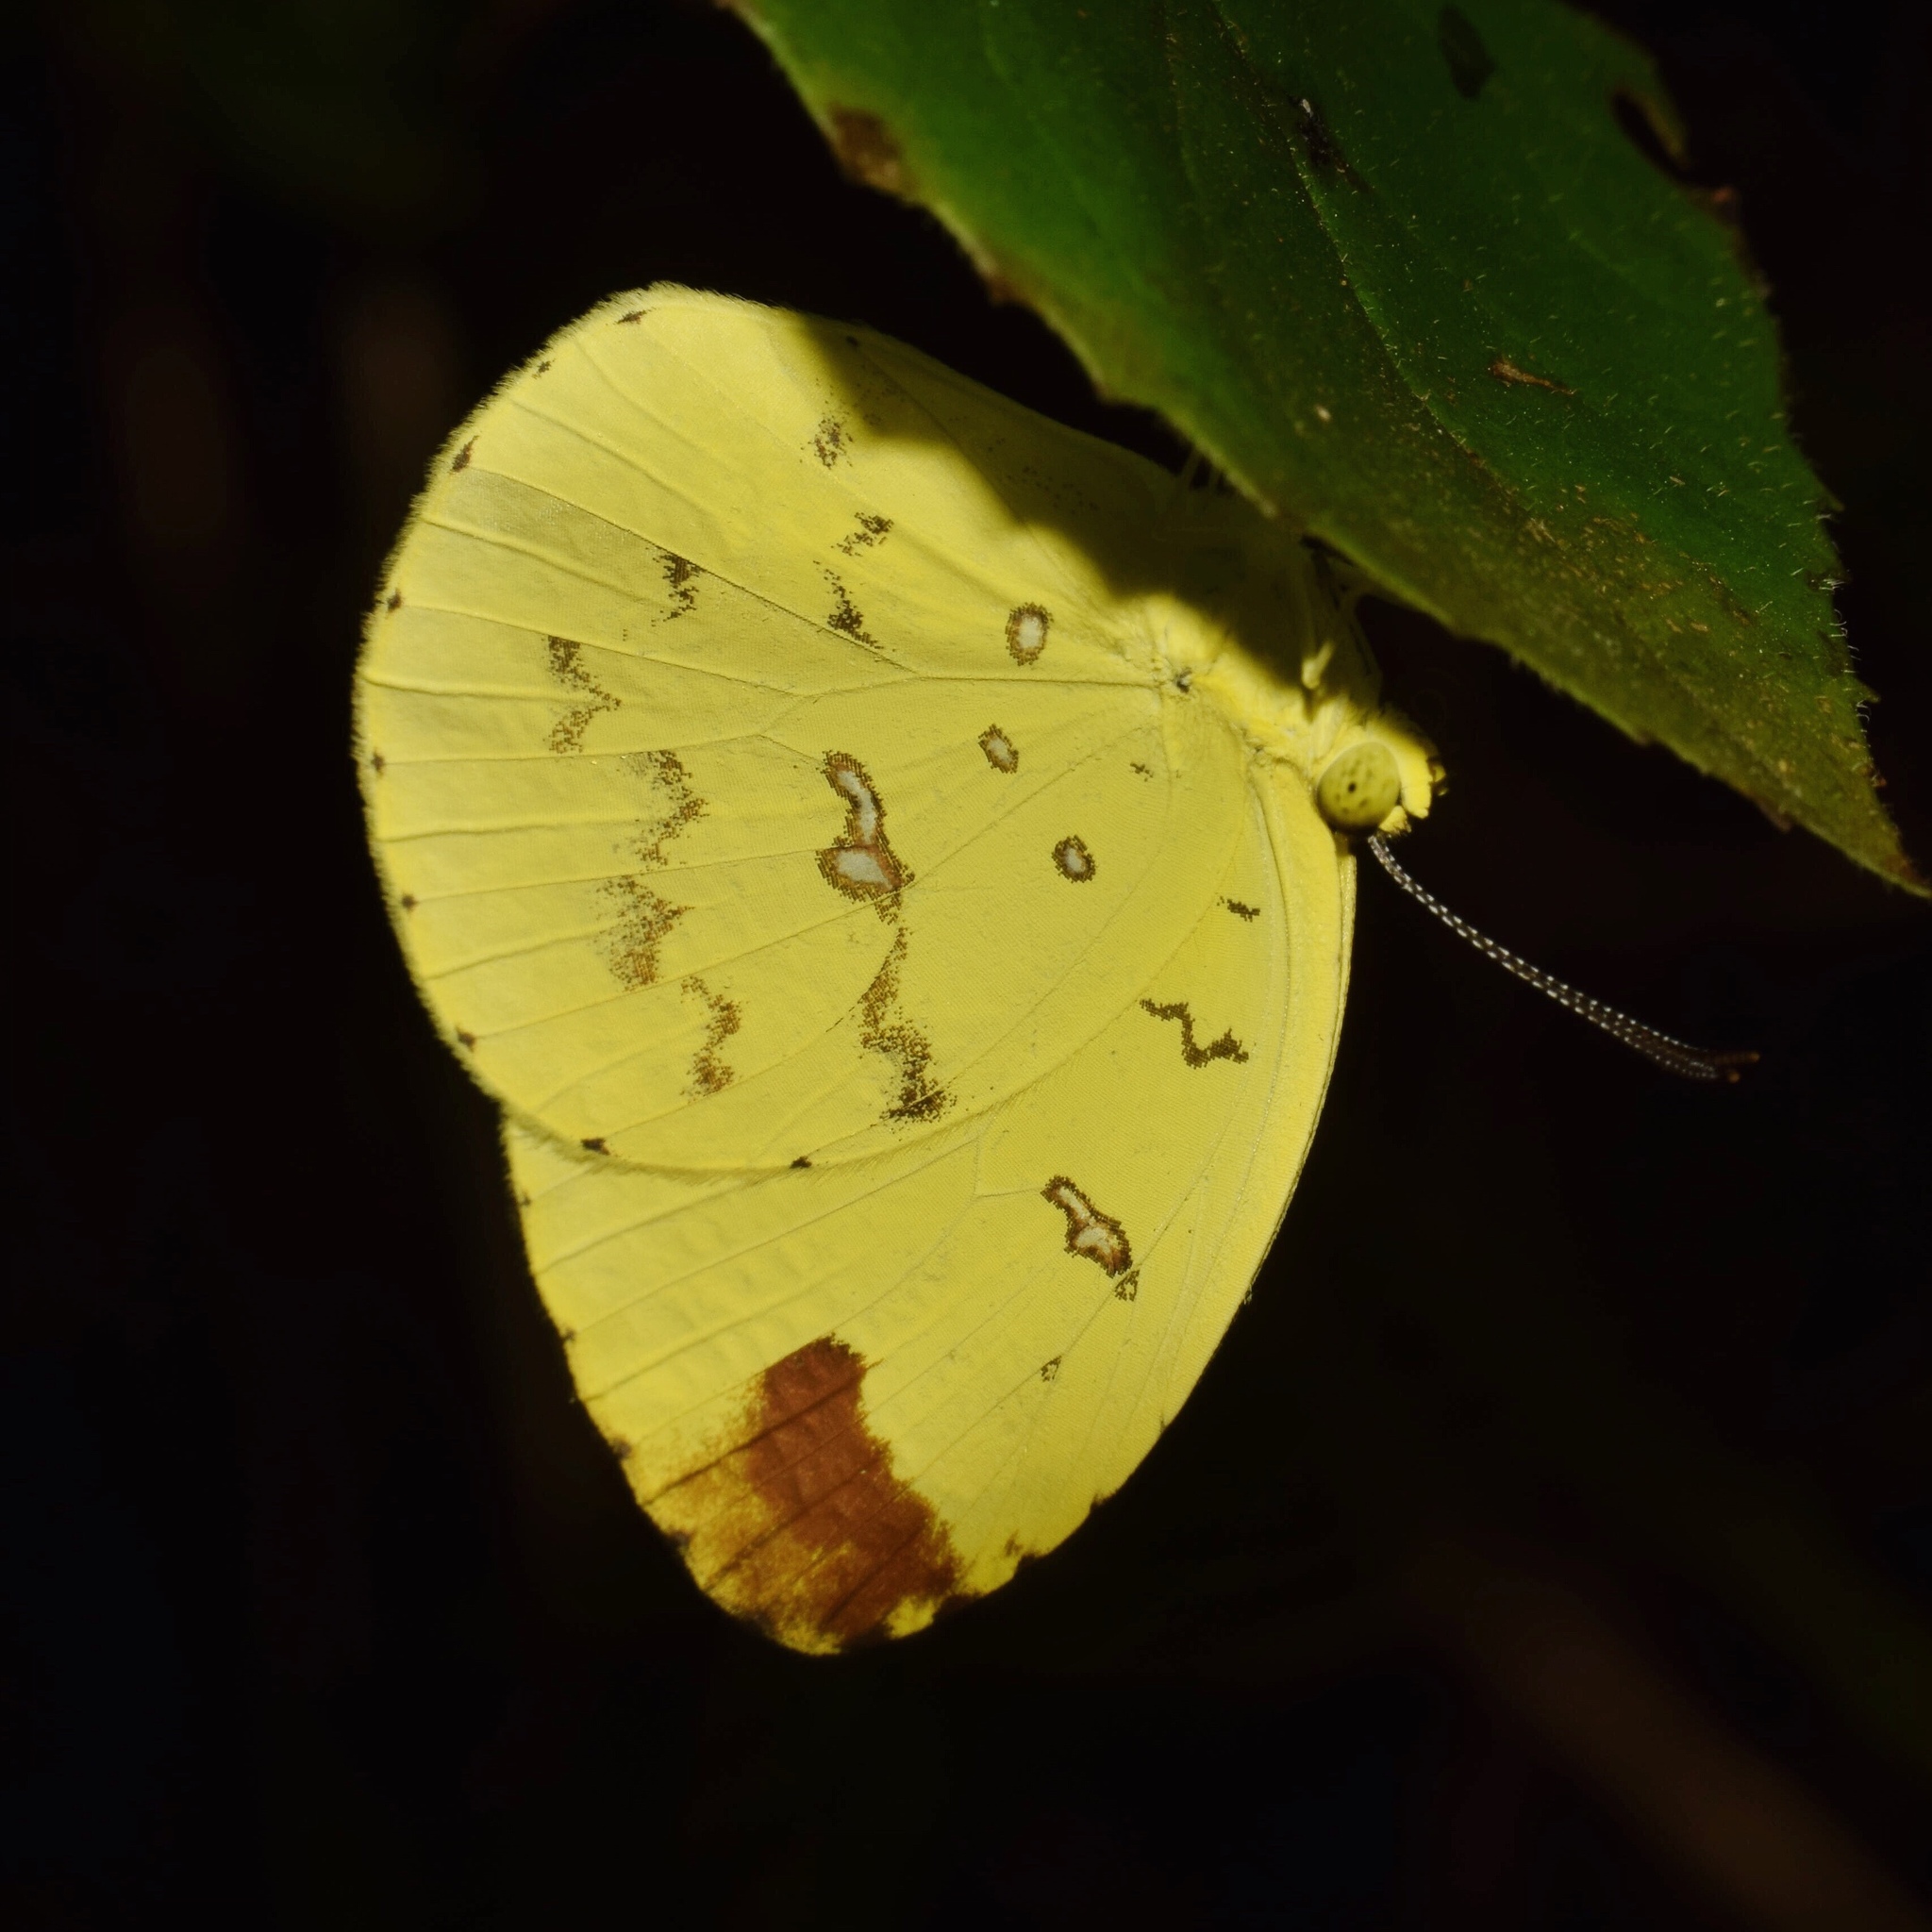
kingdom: Animalia
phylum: Arthropoda
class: Insecta
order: Lepidoptera
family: Pieridae
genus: Eurema
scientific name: Eurema floricola
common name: Malagasy grass yellow
